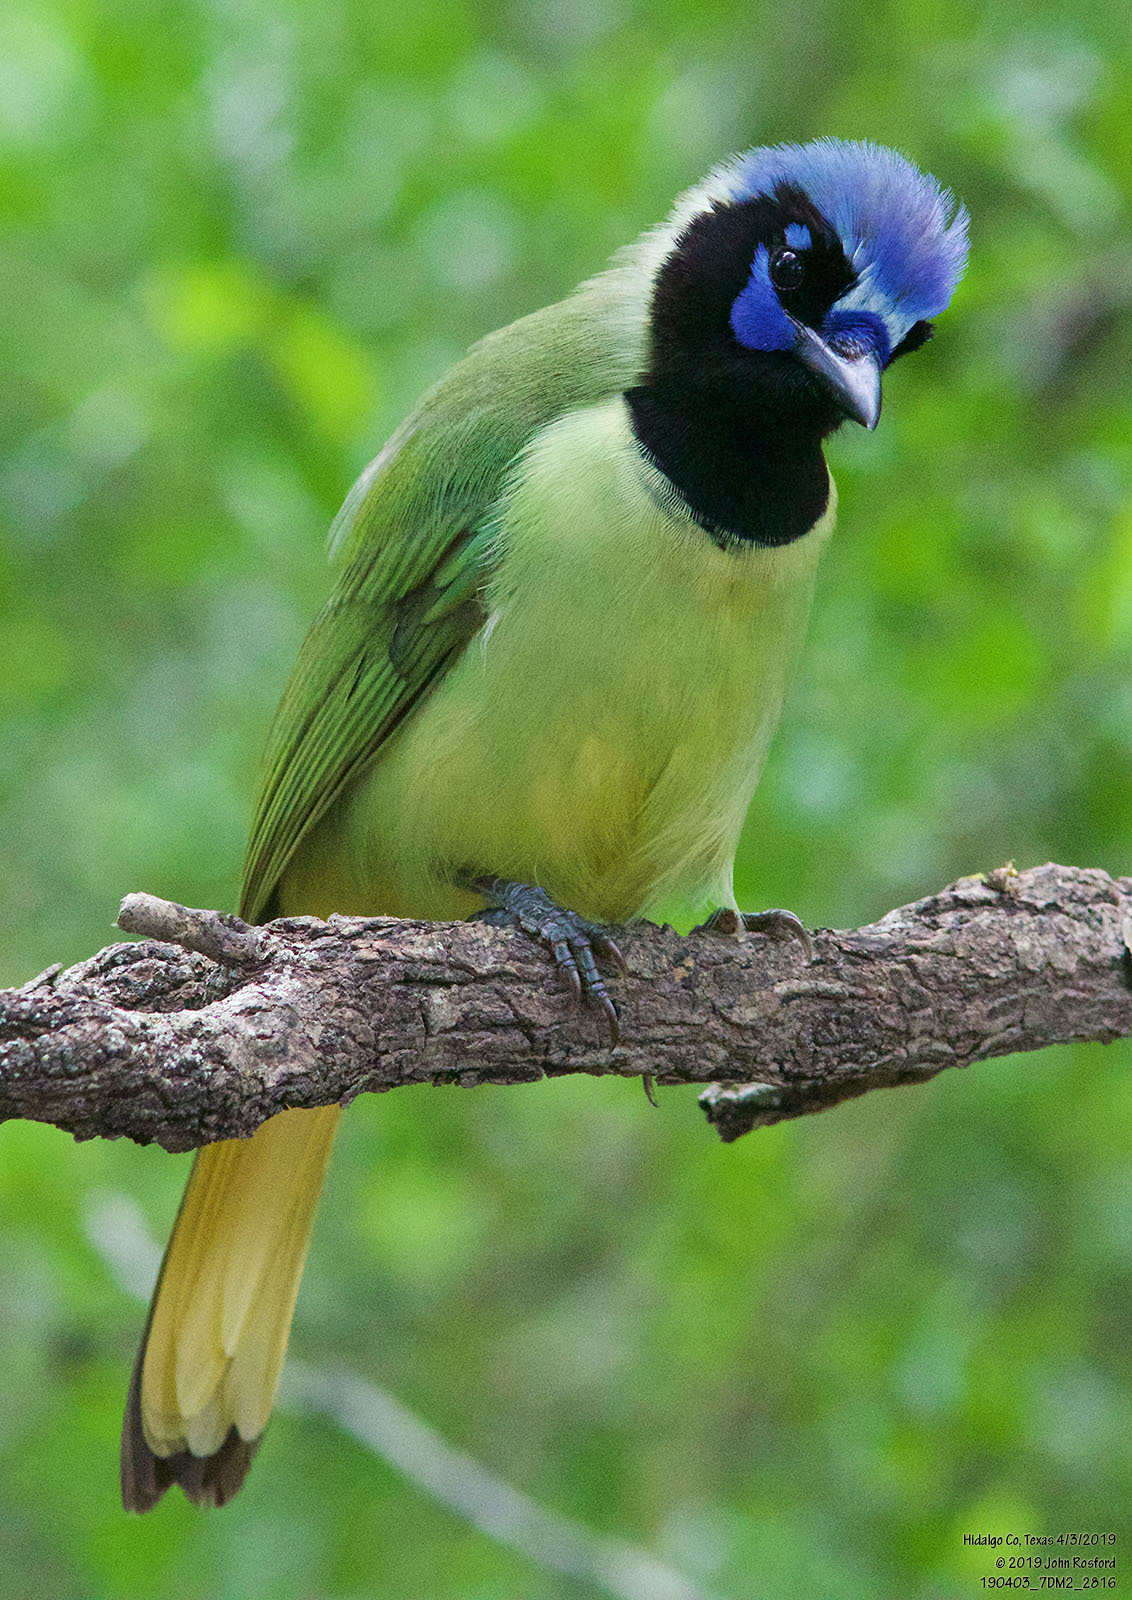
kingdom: Animalia
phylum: Chordata
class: Aves
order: Passeriformes
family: Corvidae
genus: Cyanocorax
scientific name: Cyanocorax yncas
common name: Green jay
